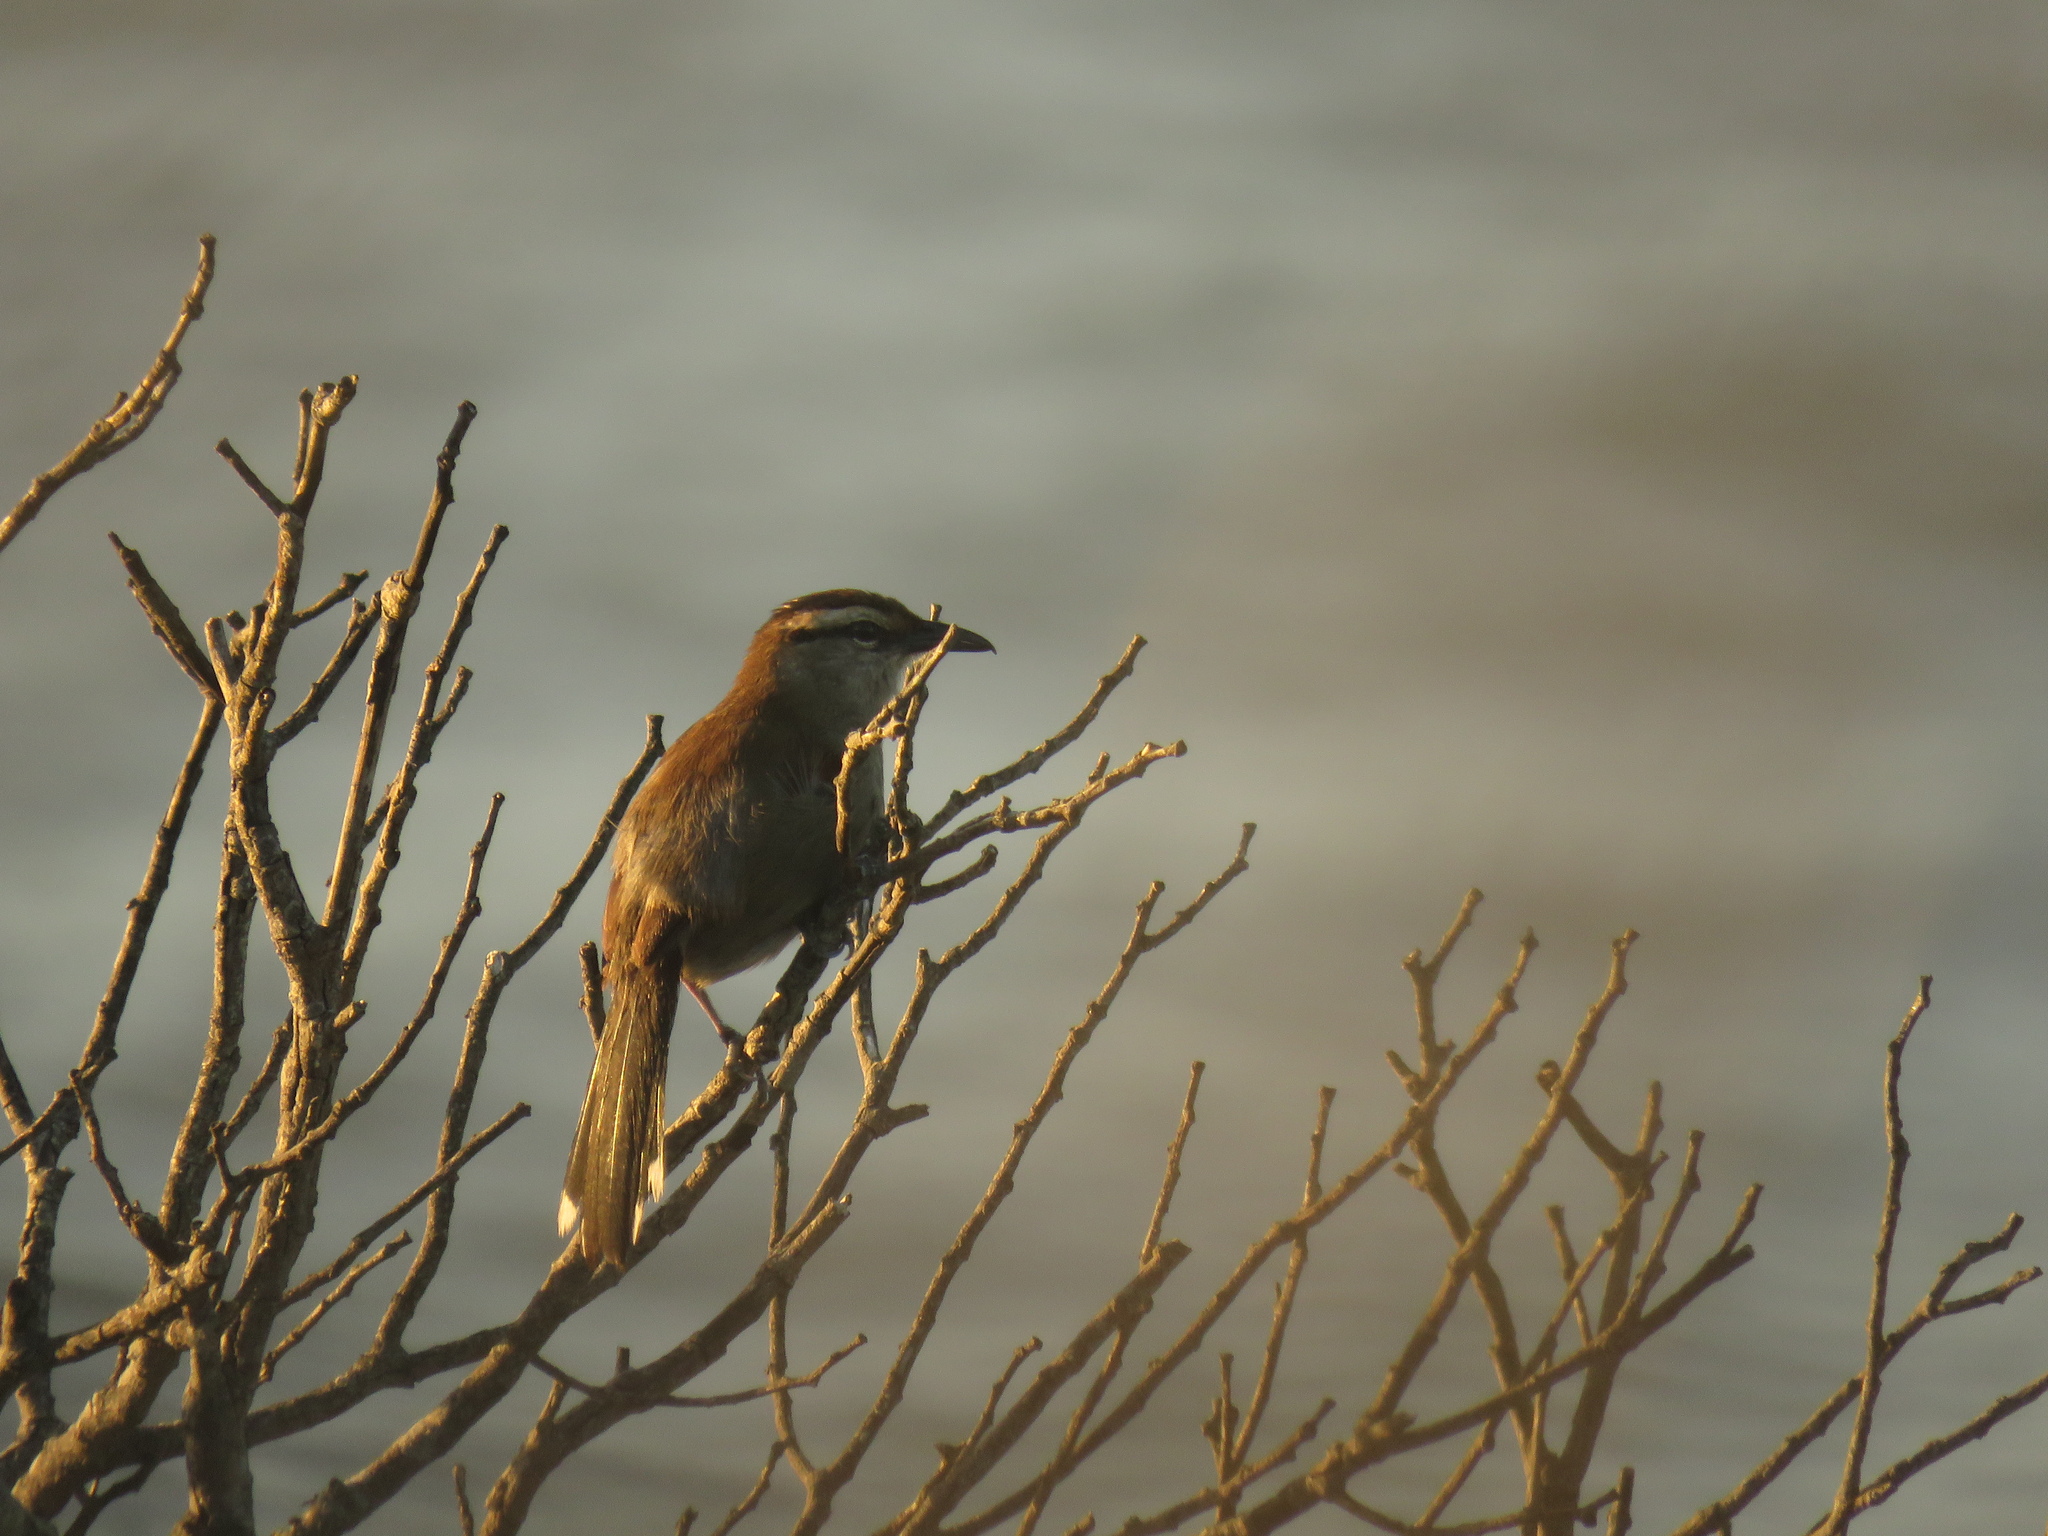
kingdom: Animalia
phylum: Chordata
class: Aves
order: Passeriformes
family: Malaconotidae
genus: Tchagra
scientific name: Tchagra tchagra
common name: Southern tchagra
